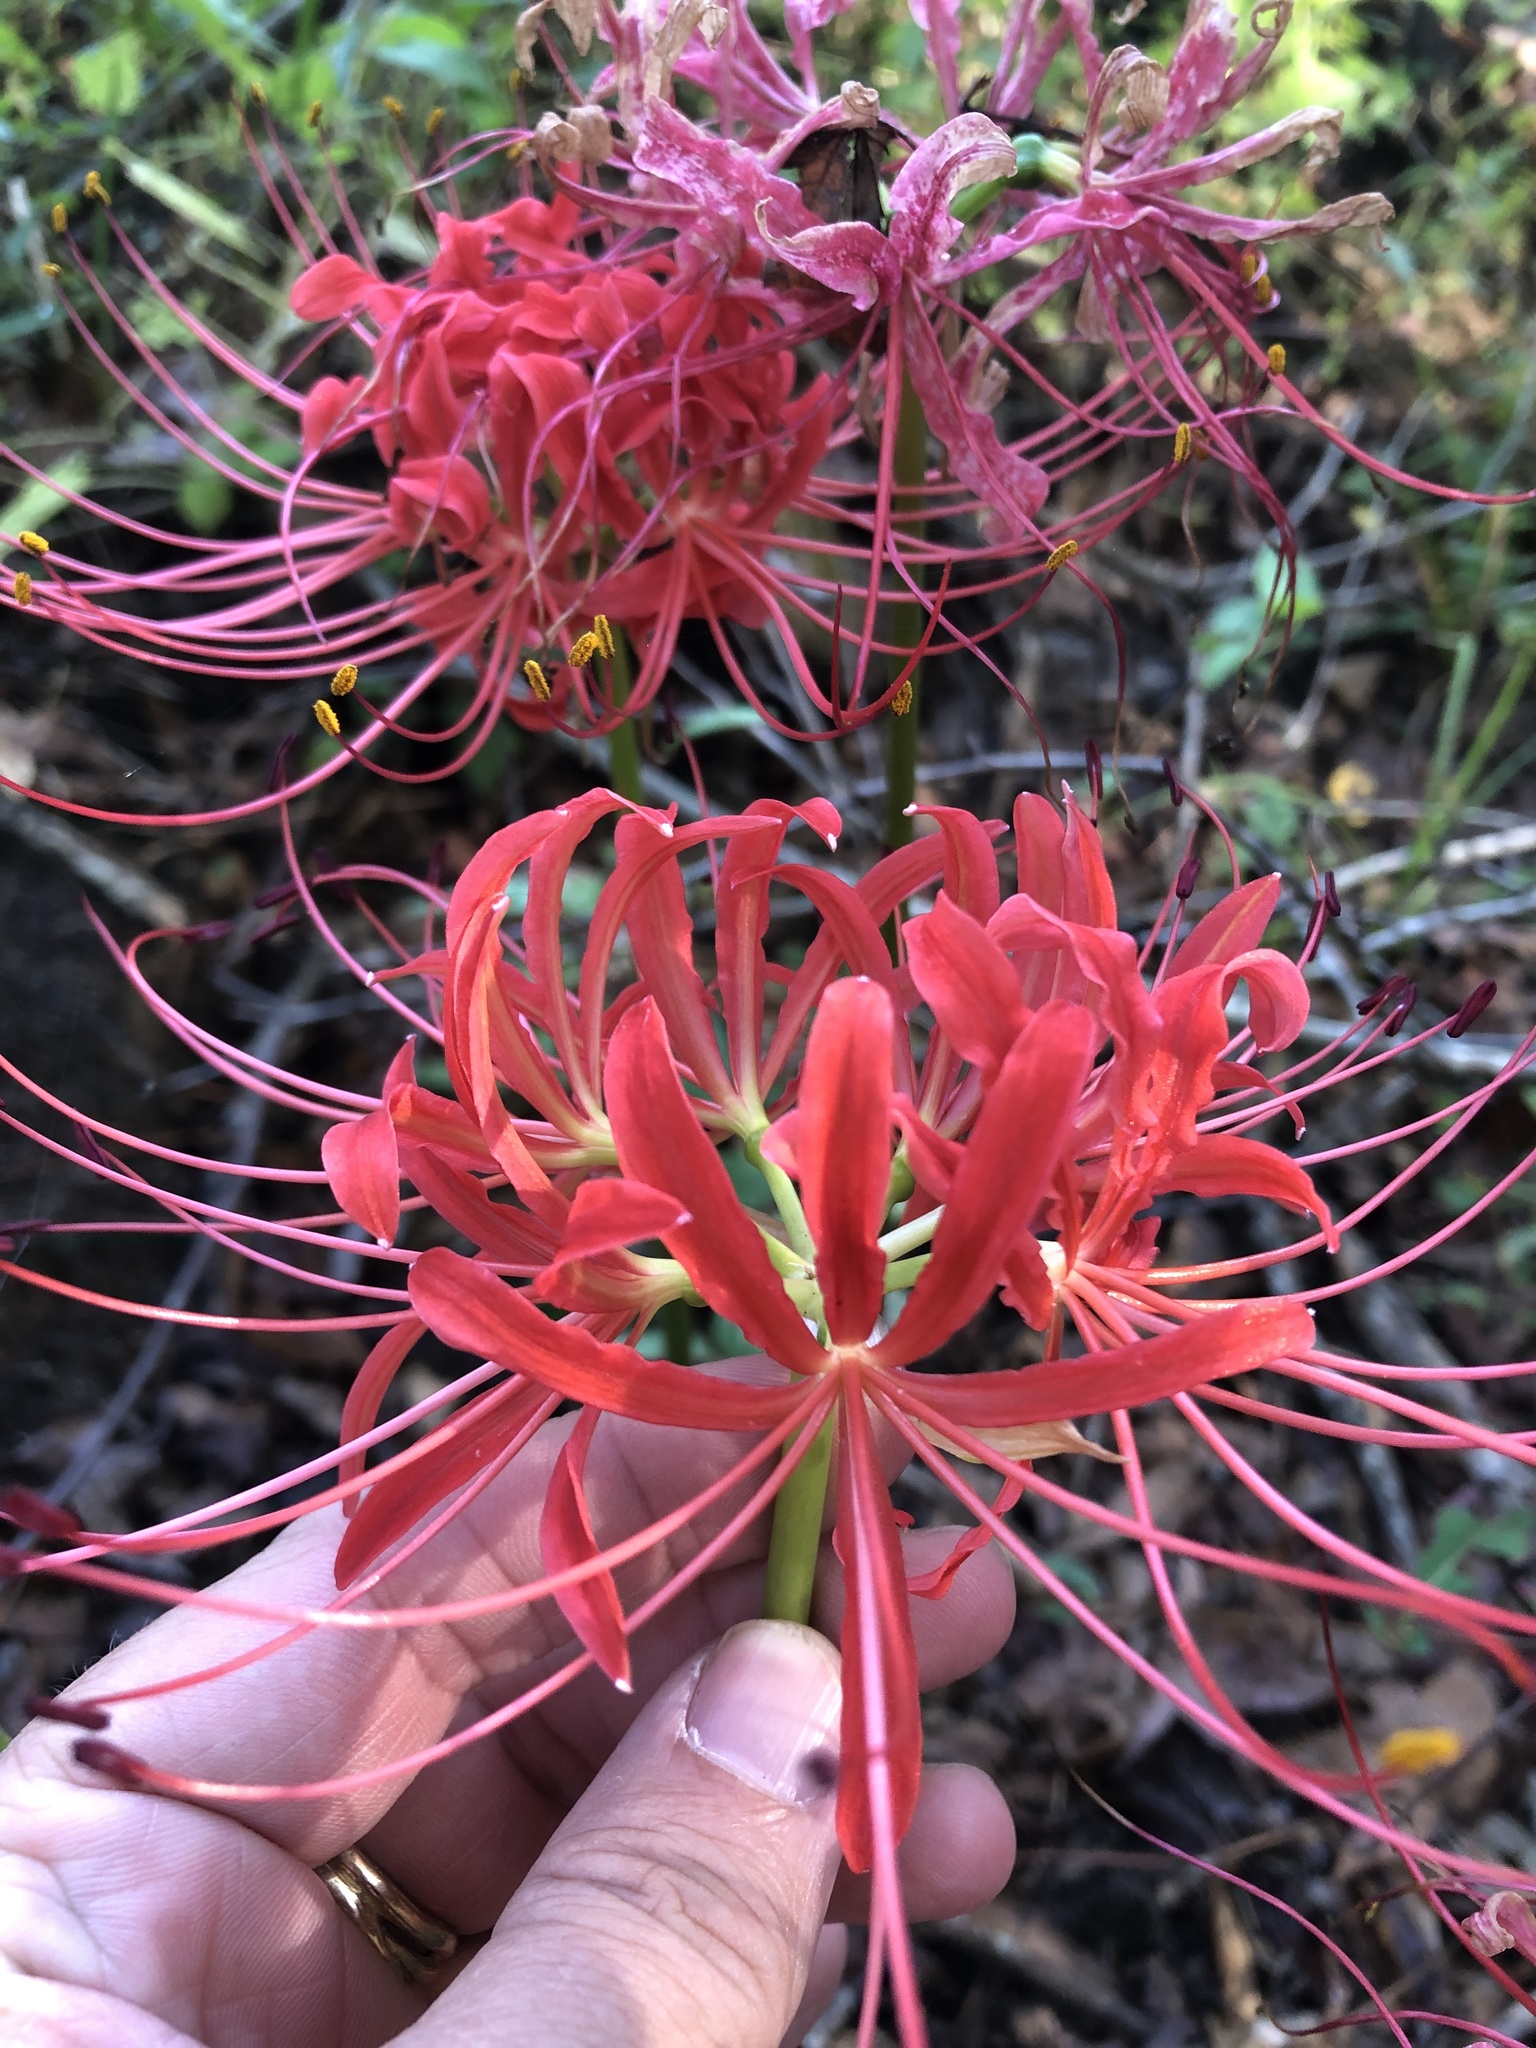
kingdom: Plantae
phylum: Tracheophyta
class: Liliopsida
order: Asparagales
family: Amaryllidaceae
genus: Lycoris
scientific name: Lycoris radiata
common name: Red spider lily
